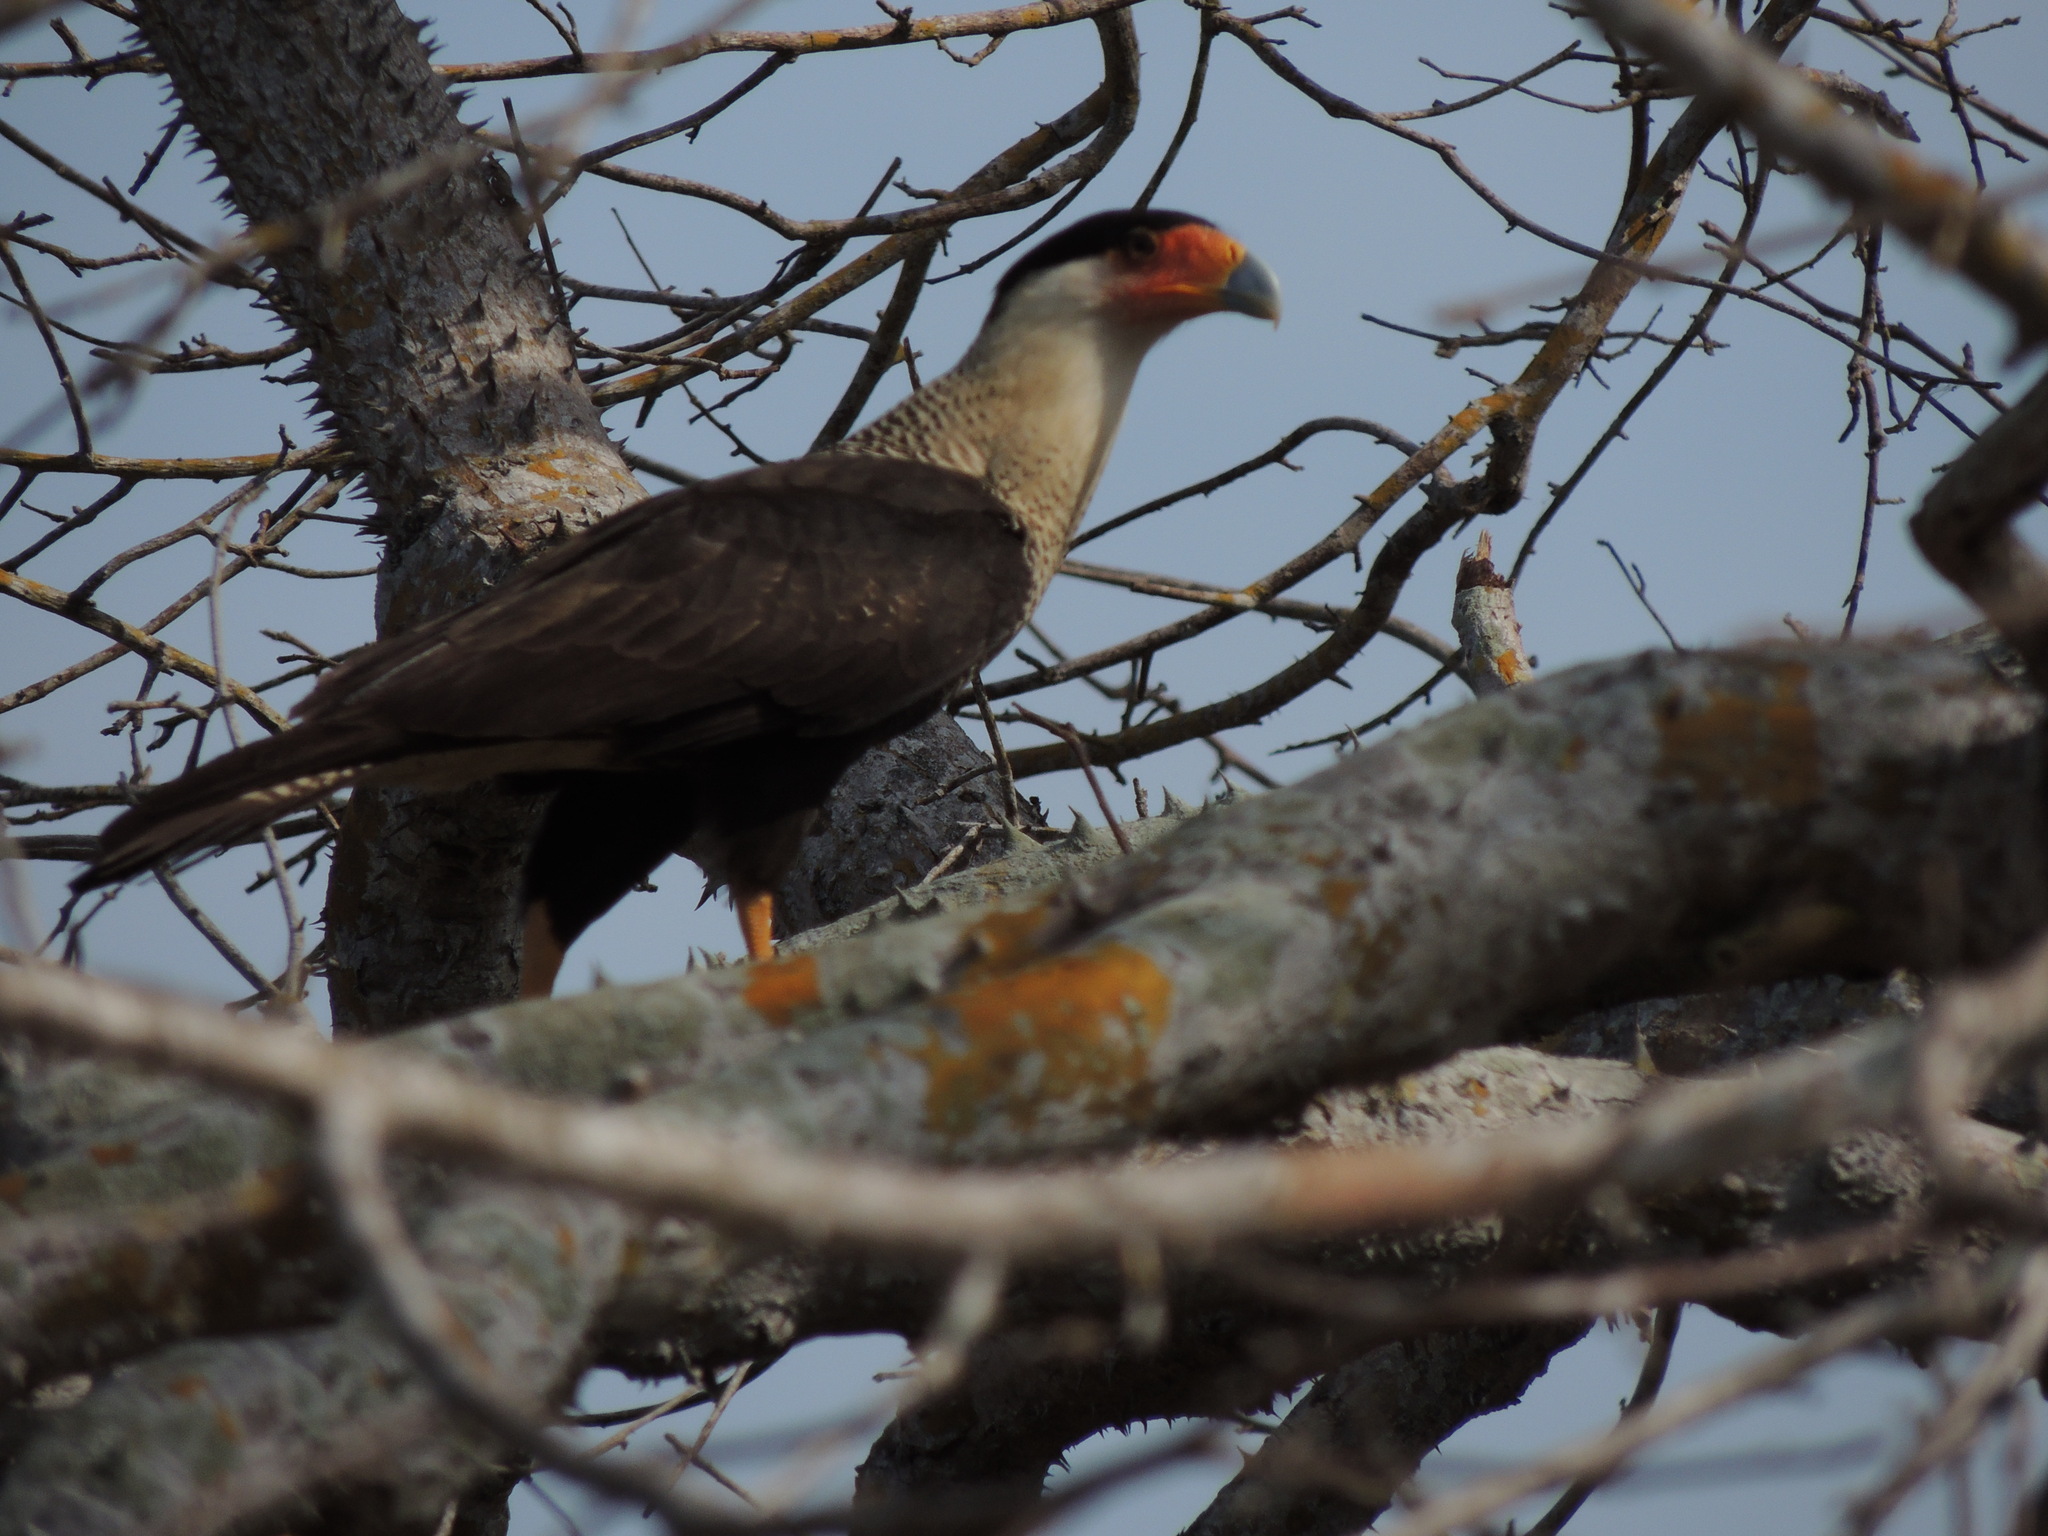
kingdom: Animalia
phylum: Chordata
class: Aves
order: Falconiformes
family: Falconidae
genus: Caracara
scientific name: Caracara plancus
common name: Southern caracara
